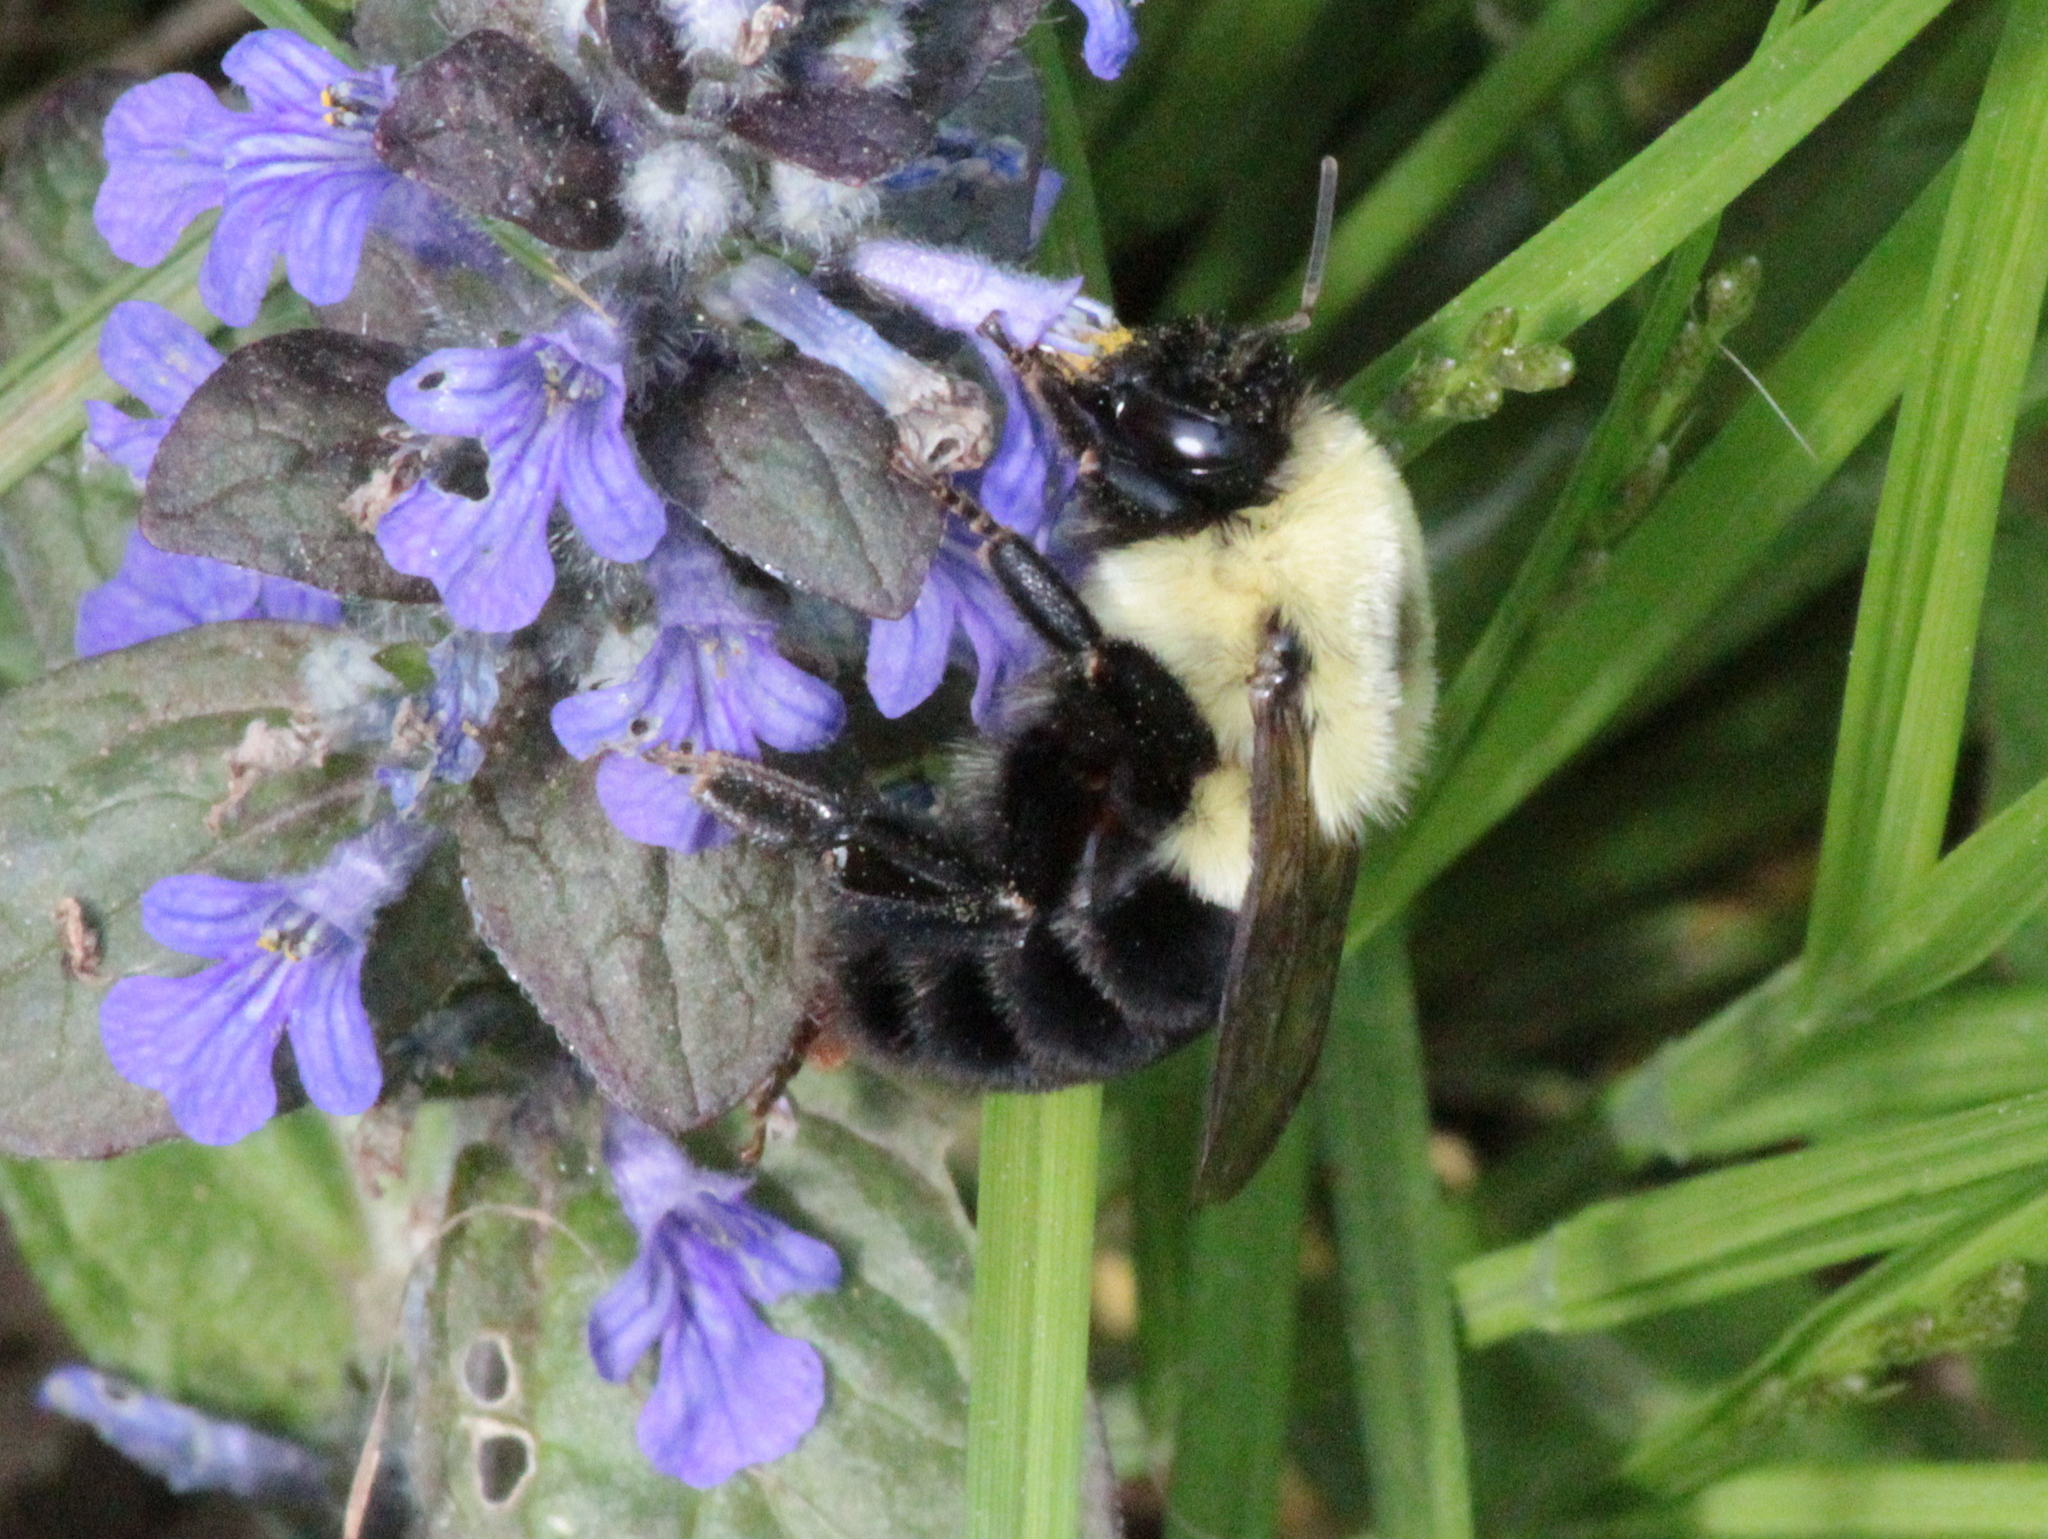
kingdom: Animalia
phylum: Arthropoda
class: Insecta
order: Hymenoptera
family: Apidae
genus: Bombus
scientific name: Bombus impatiens
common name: Common eastern bumble bee
